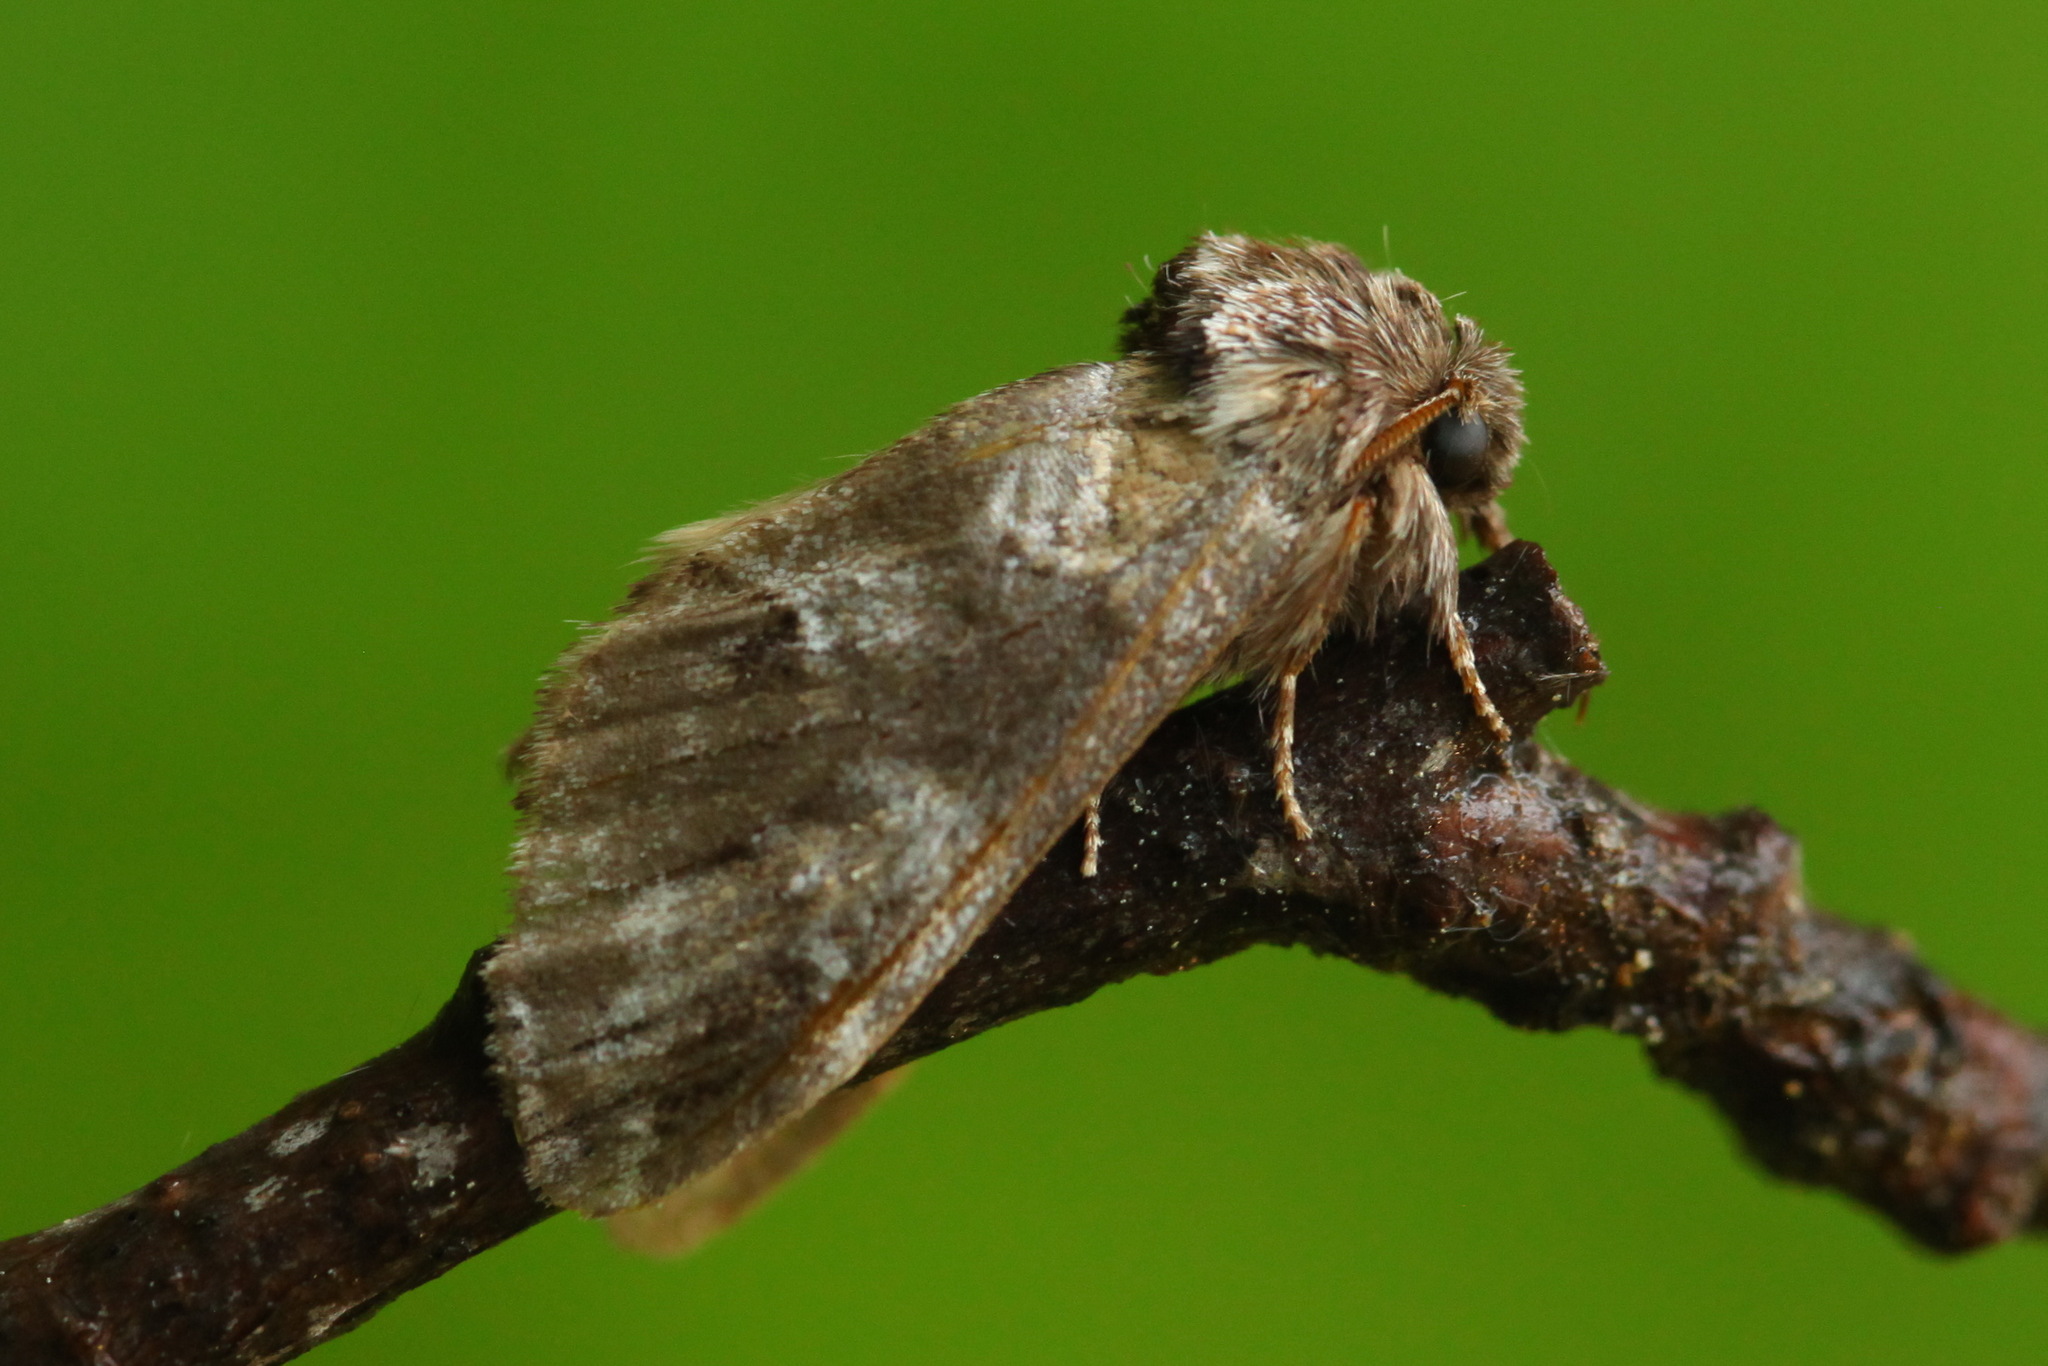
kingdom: Animalia
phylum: Arthropoda
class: Insecta
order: Lepidoptera
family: Notodontidae
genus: Drymonia
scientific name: Drymonia dodonides
